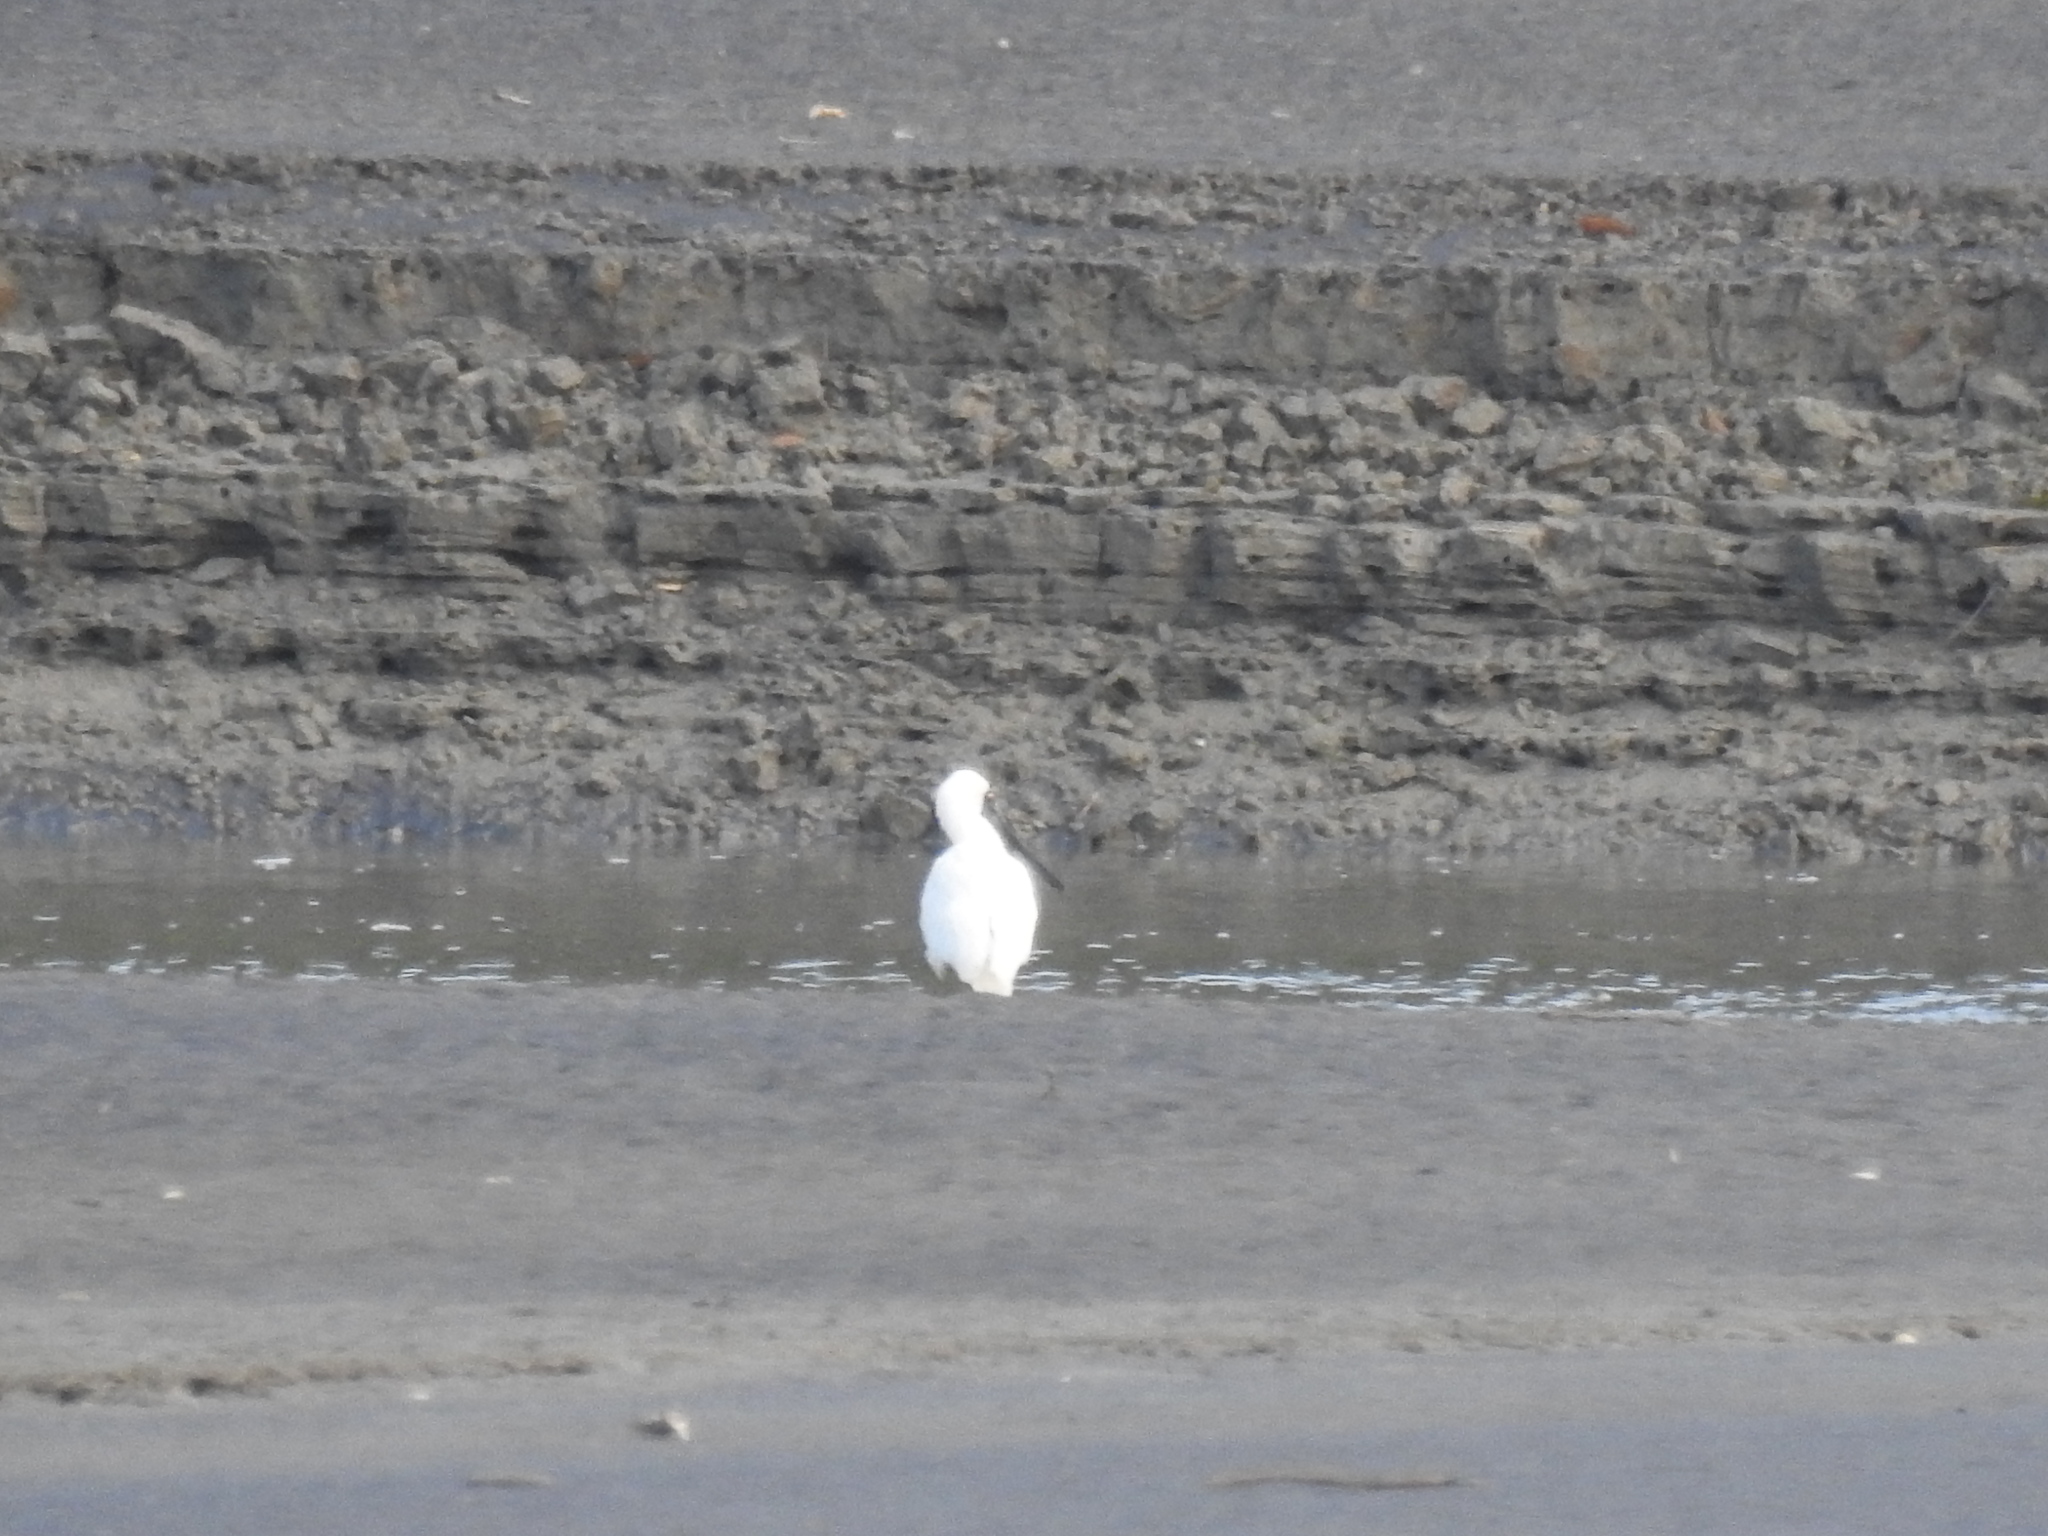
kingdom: Animalia
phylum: Chordata
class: Aves
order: Pelecaniformes
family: Threskiornithidae
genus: Platalea
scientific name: Platalea regia
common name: Royal spoonbill
